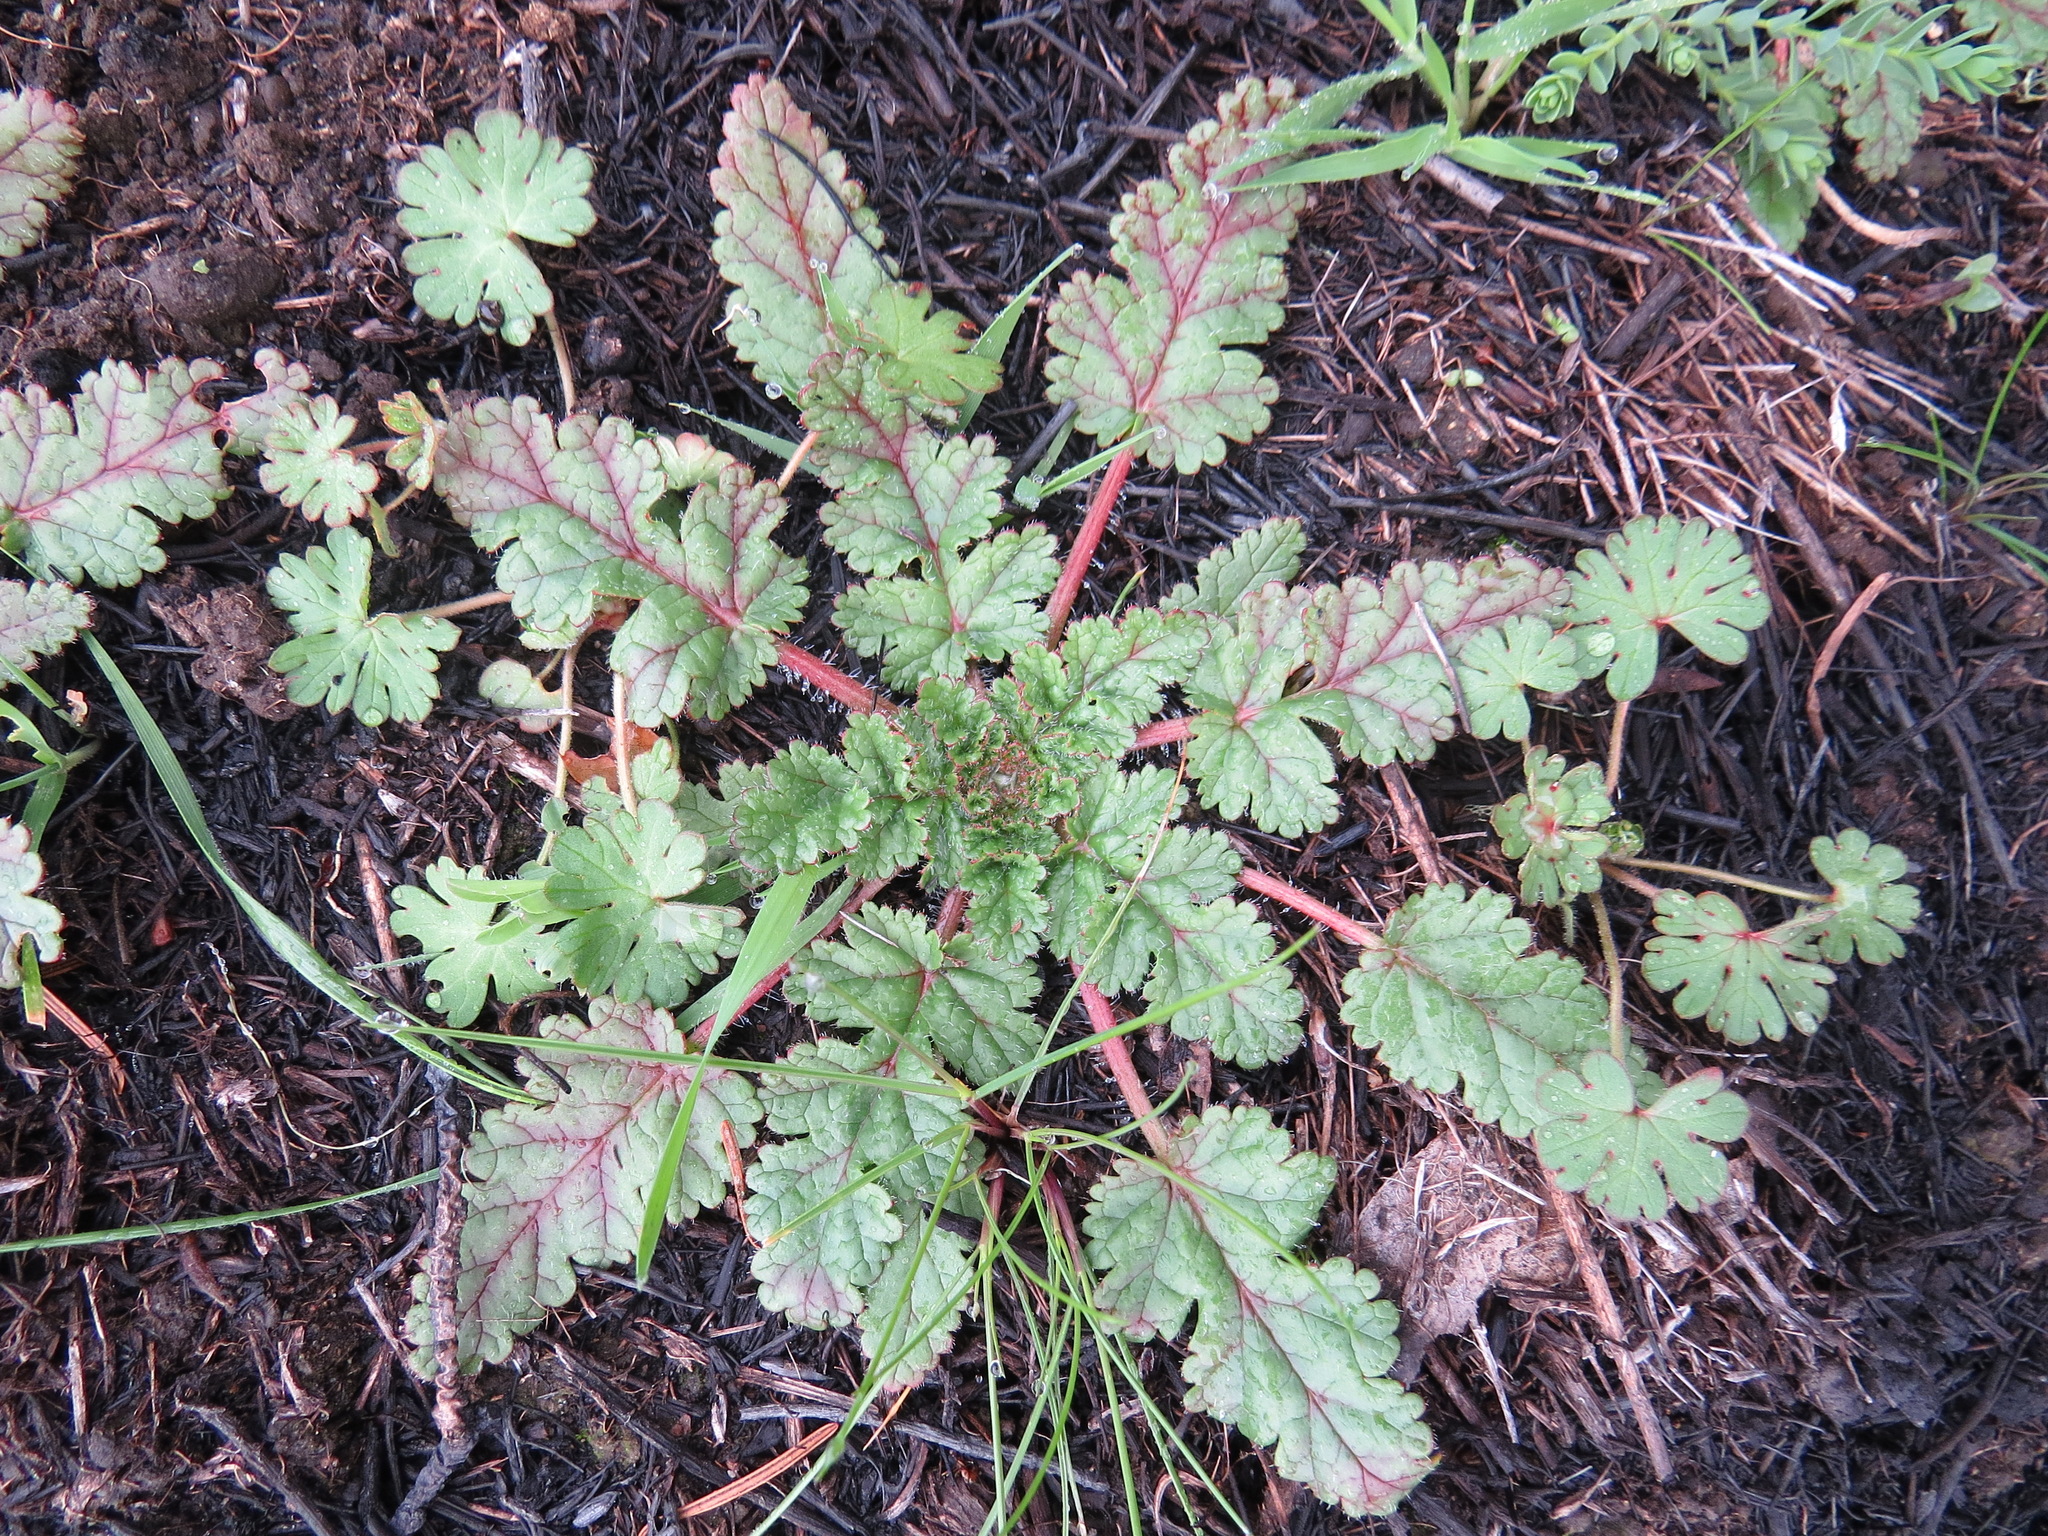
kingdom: Plantae
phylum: Tracheophyta
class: Magnoliopsida
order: Geraniales
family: Geraniaceae
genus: Erodium
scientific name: Erodium botrys
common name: Mediterranean stork's-bill
